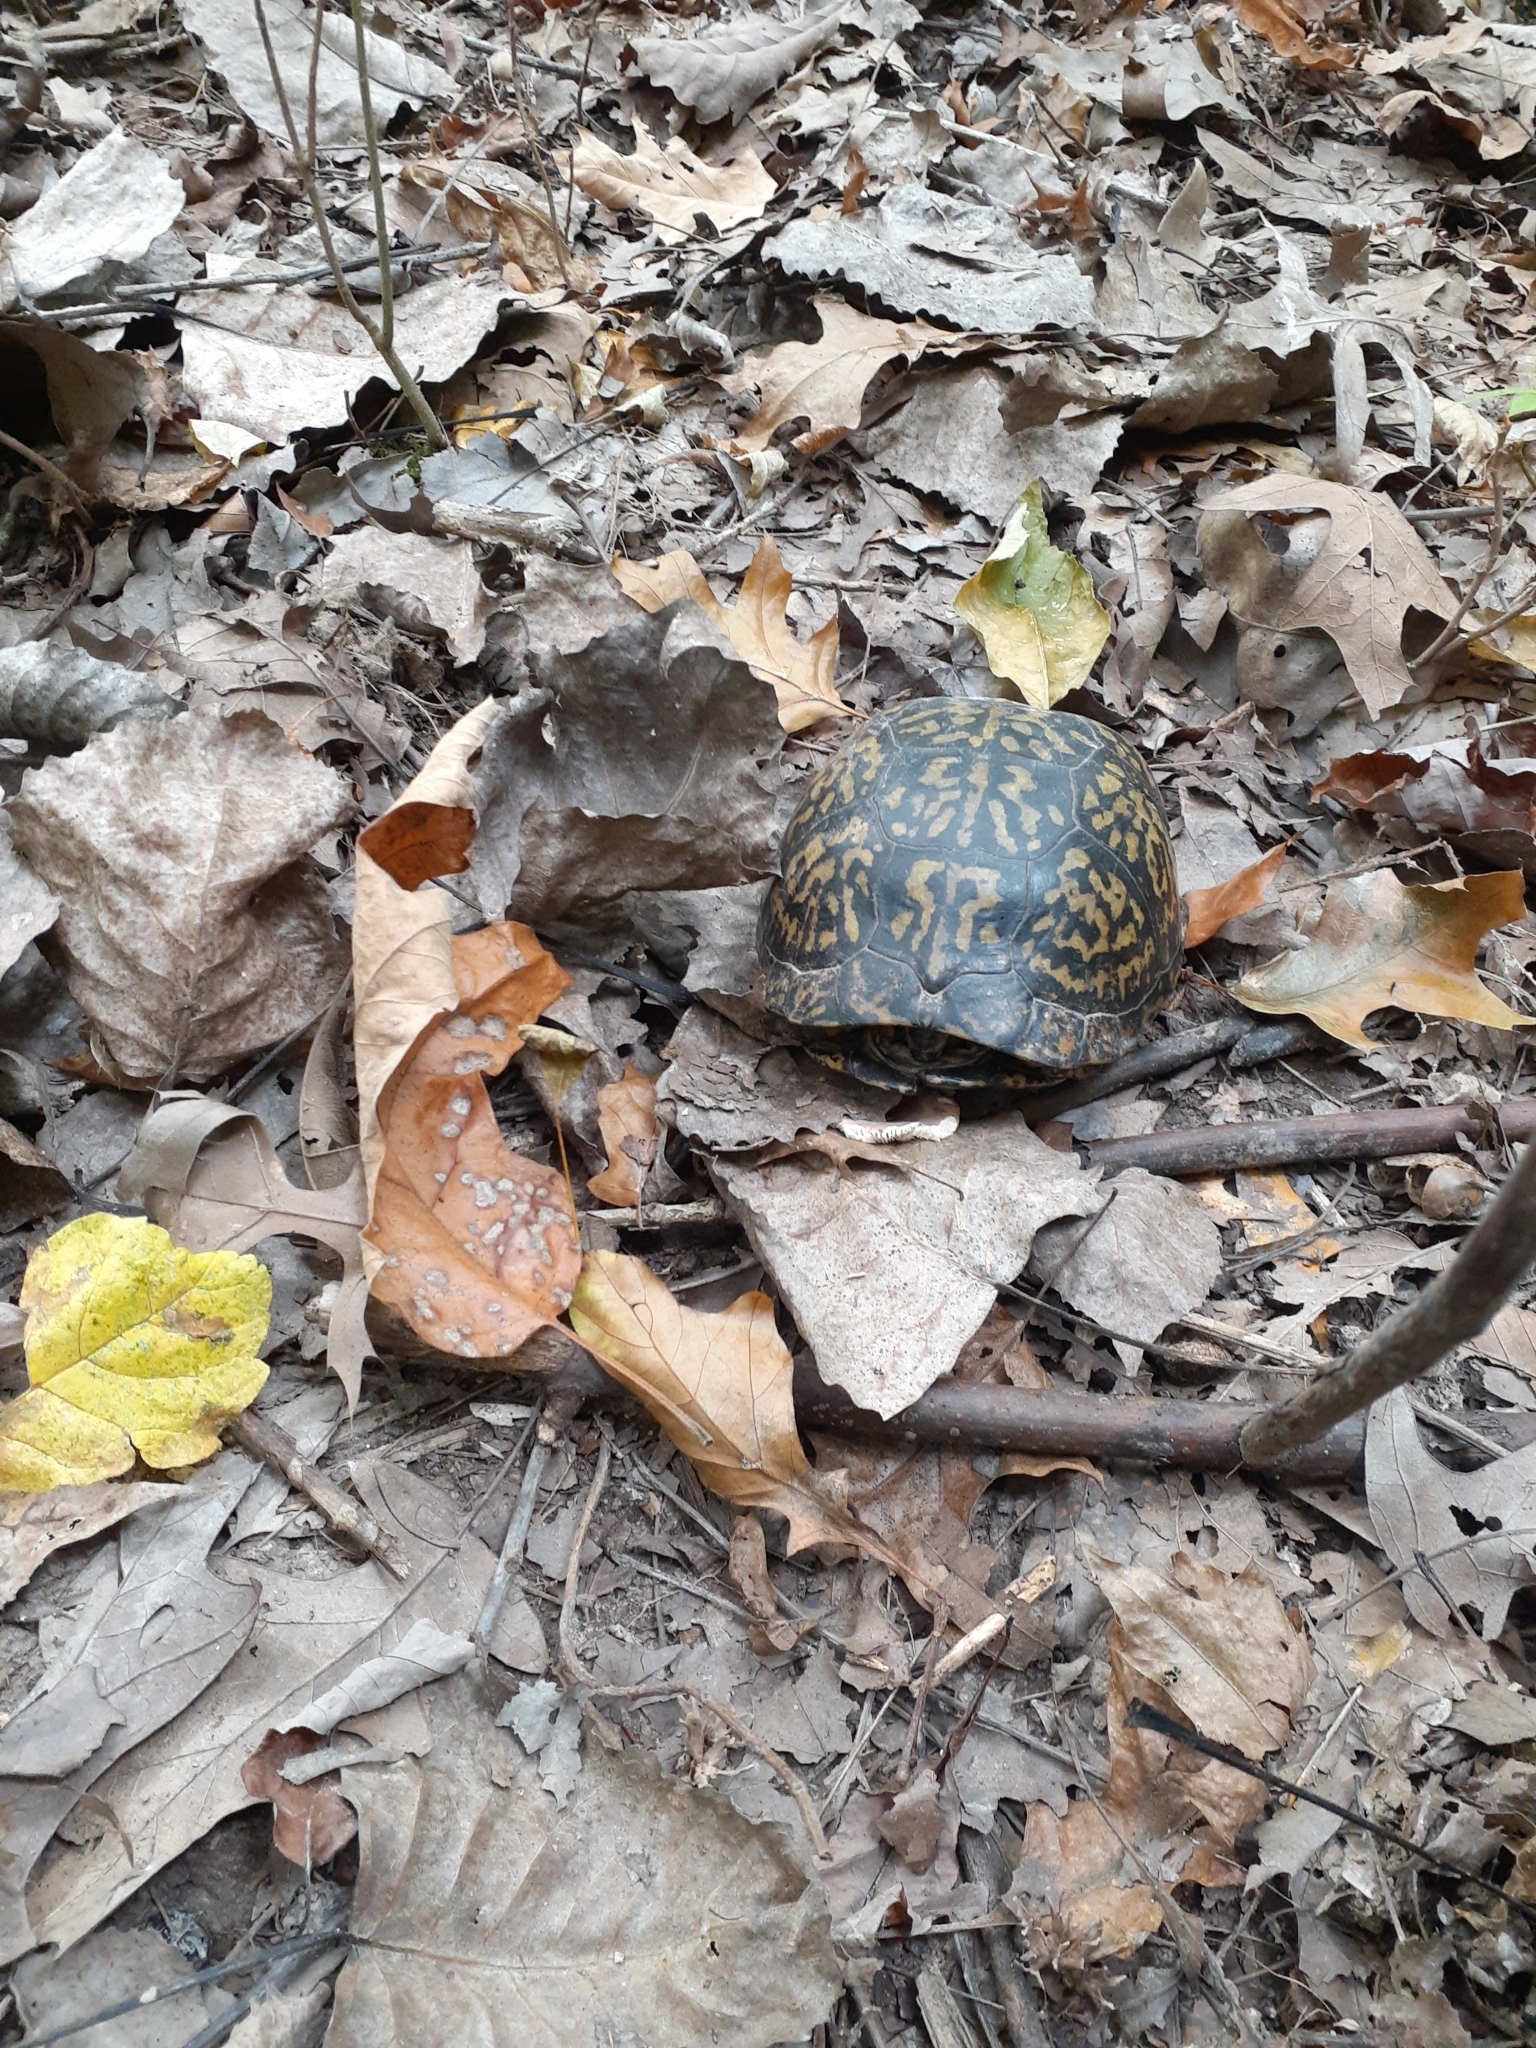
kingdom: Animalia
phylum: Chordata
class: Testudines
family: Emydidae
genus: Terrapene
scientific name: Terrapene carolina
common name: Common box turtle
